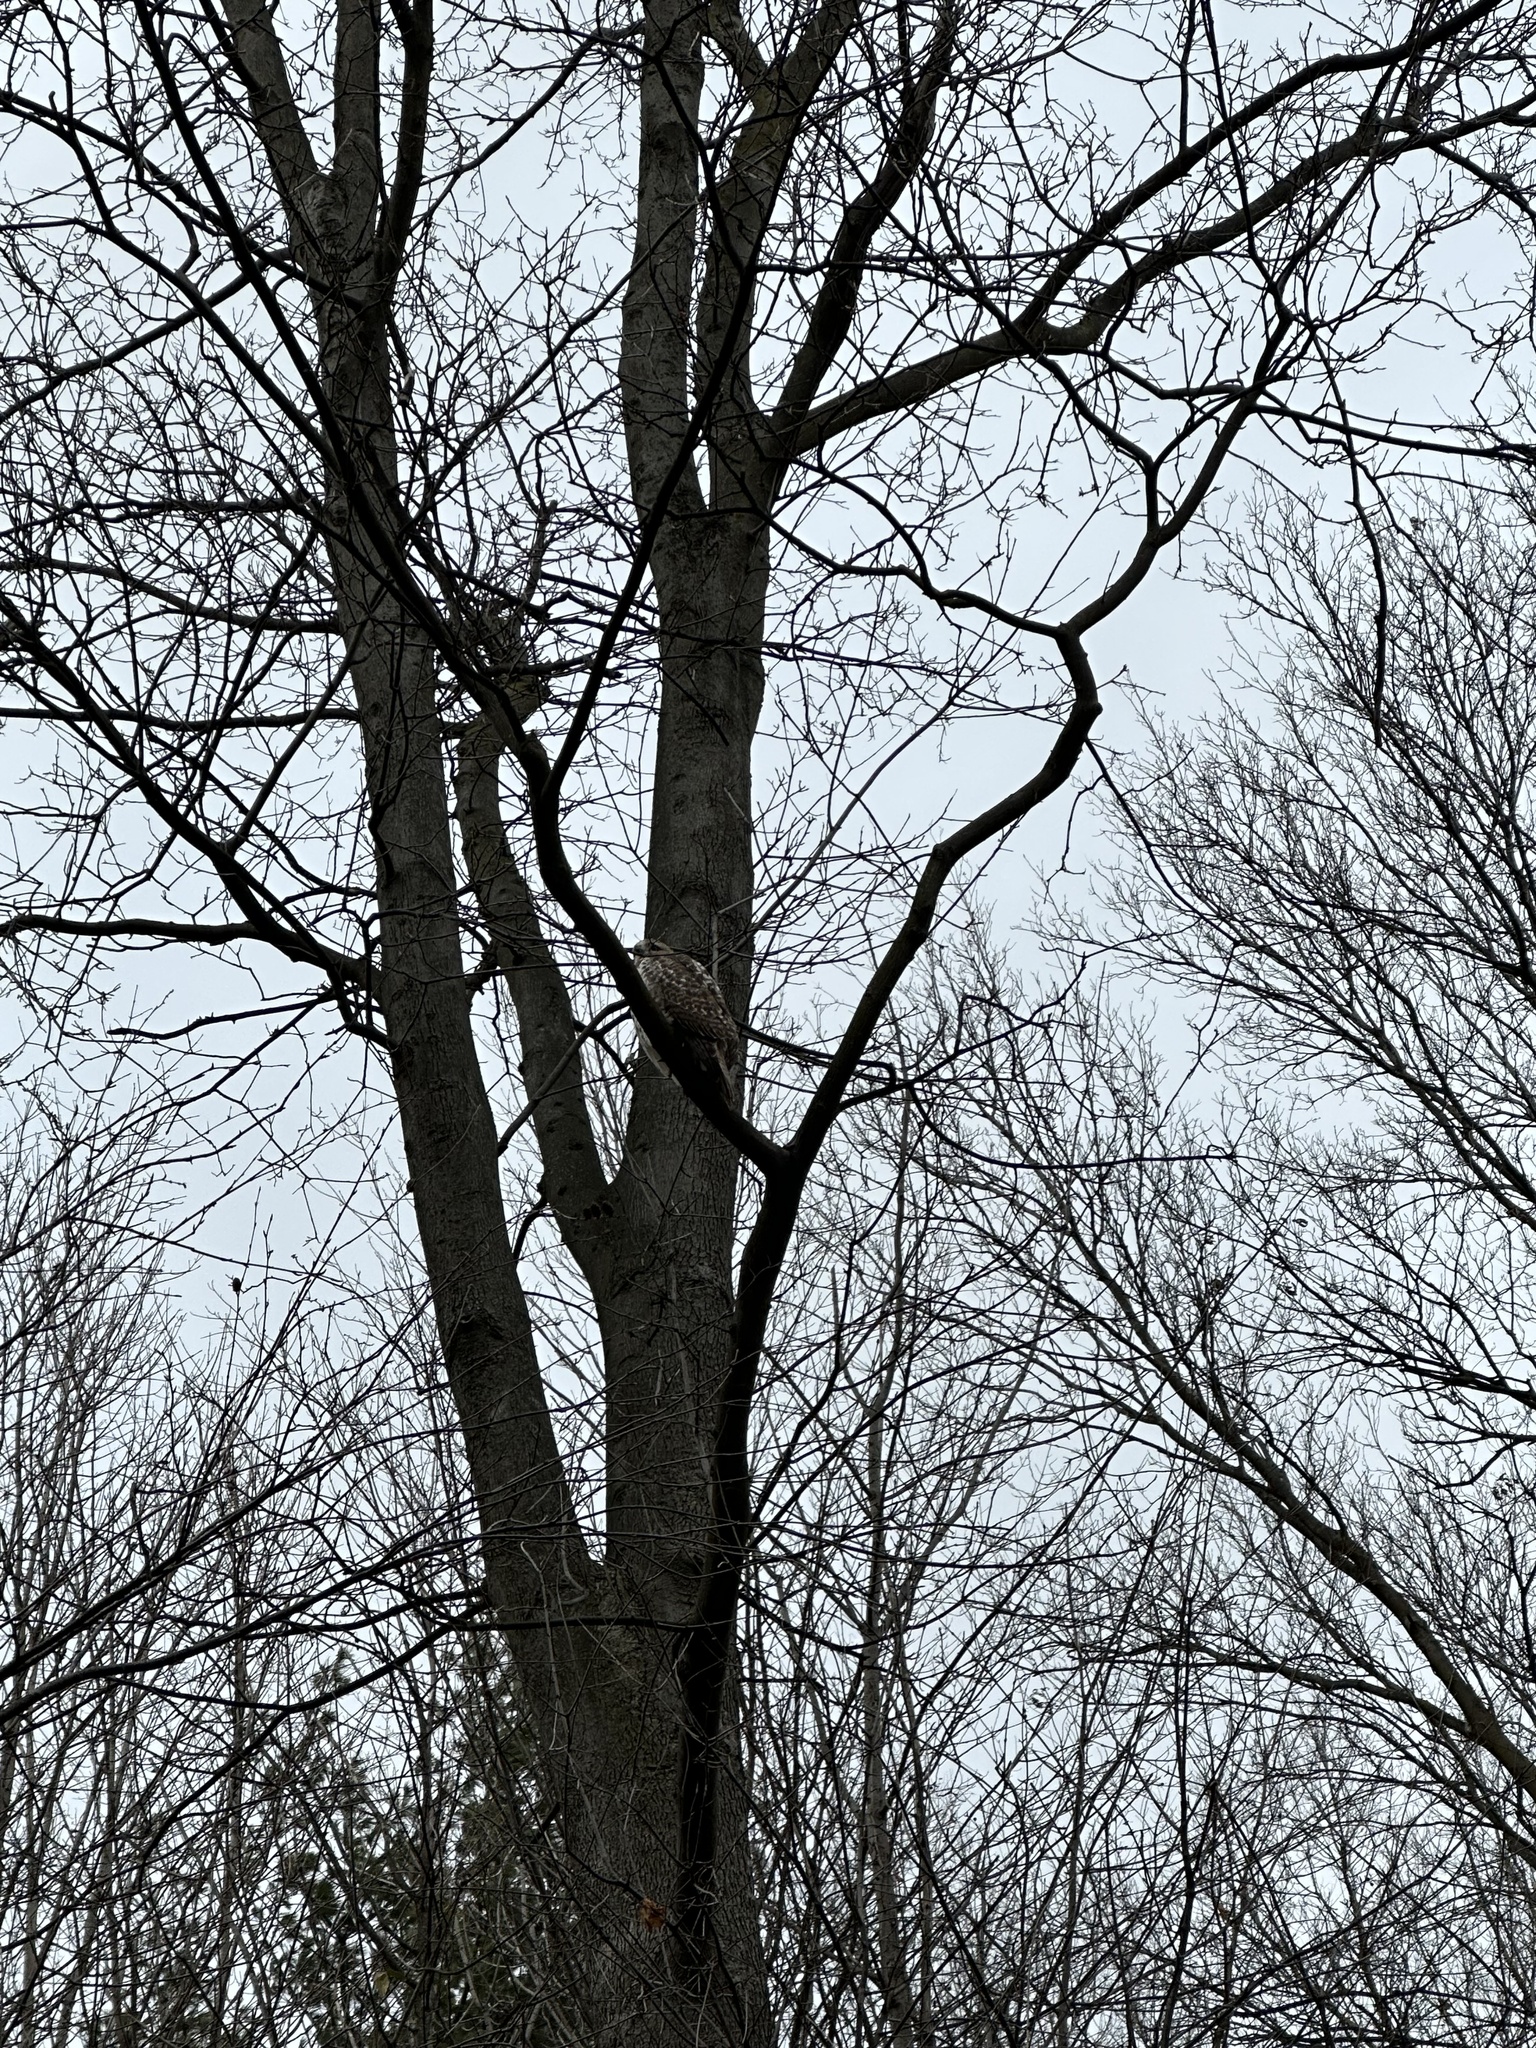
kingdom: Animalia
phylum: Chordata
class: Aves
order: Accipitriformes
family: Accipitridae
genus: Buteo
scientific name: Buteo jamaicensis
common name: Red-tailed hawk
